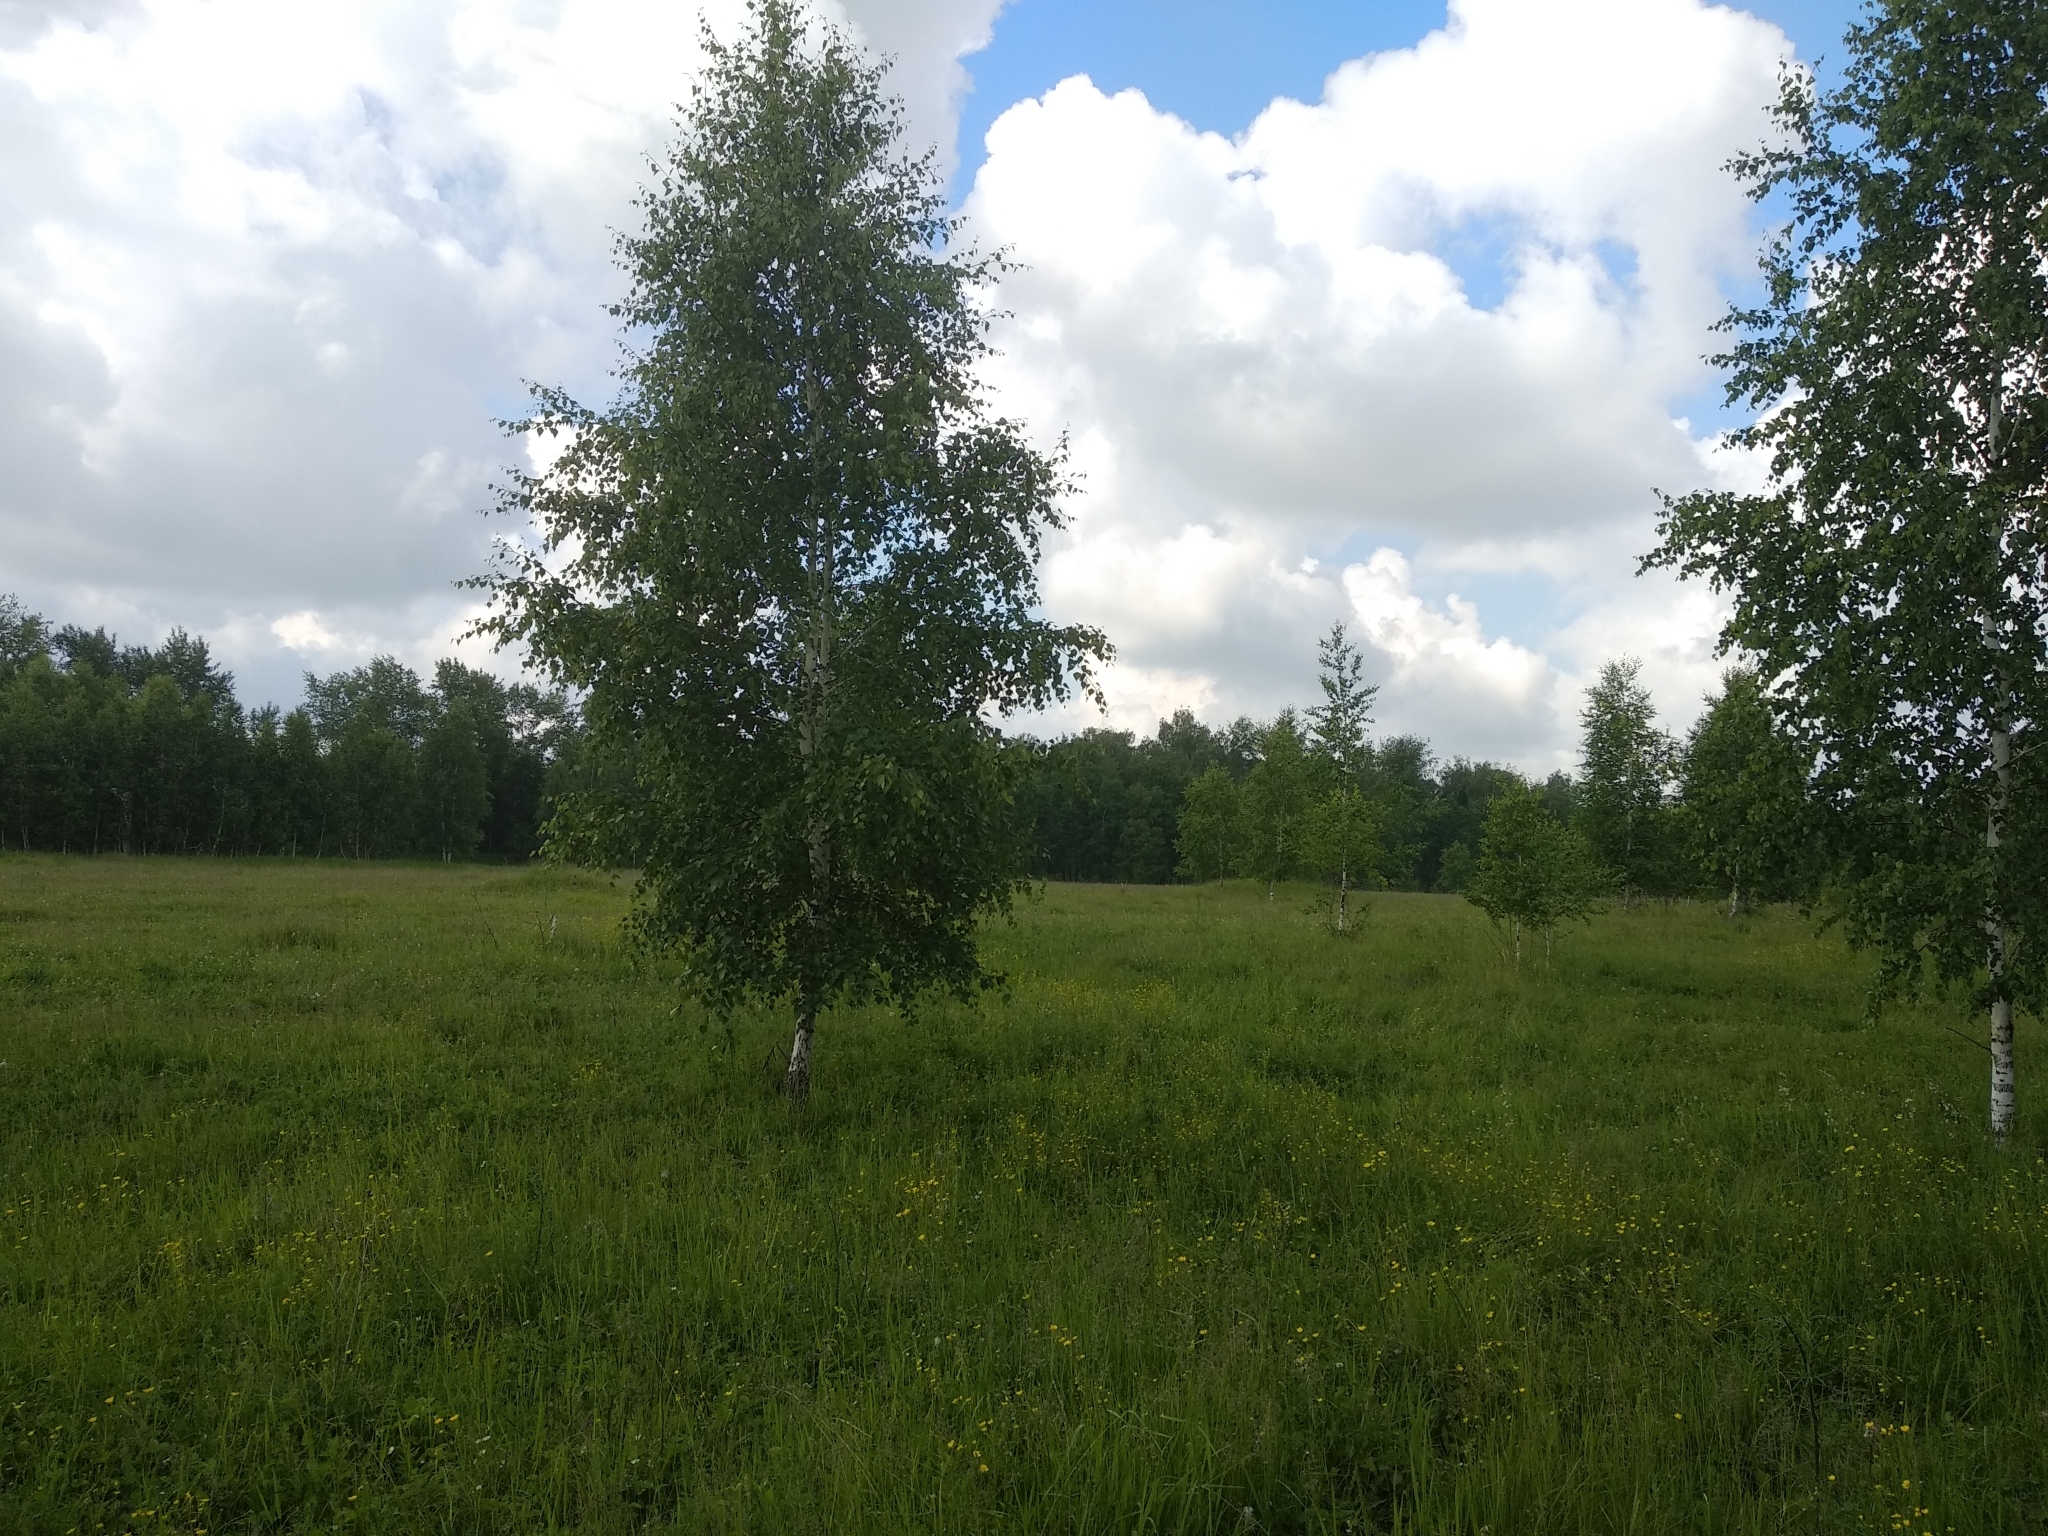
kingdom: Plantae
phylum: Tracheophyta
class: Magnoliopsida
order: Fagales
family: Betulaceae
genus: Betula
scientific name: Betula pendula
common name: Silver birch
